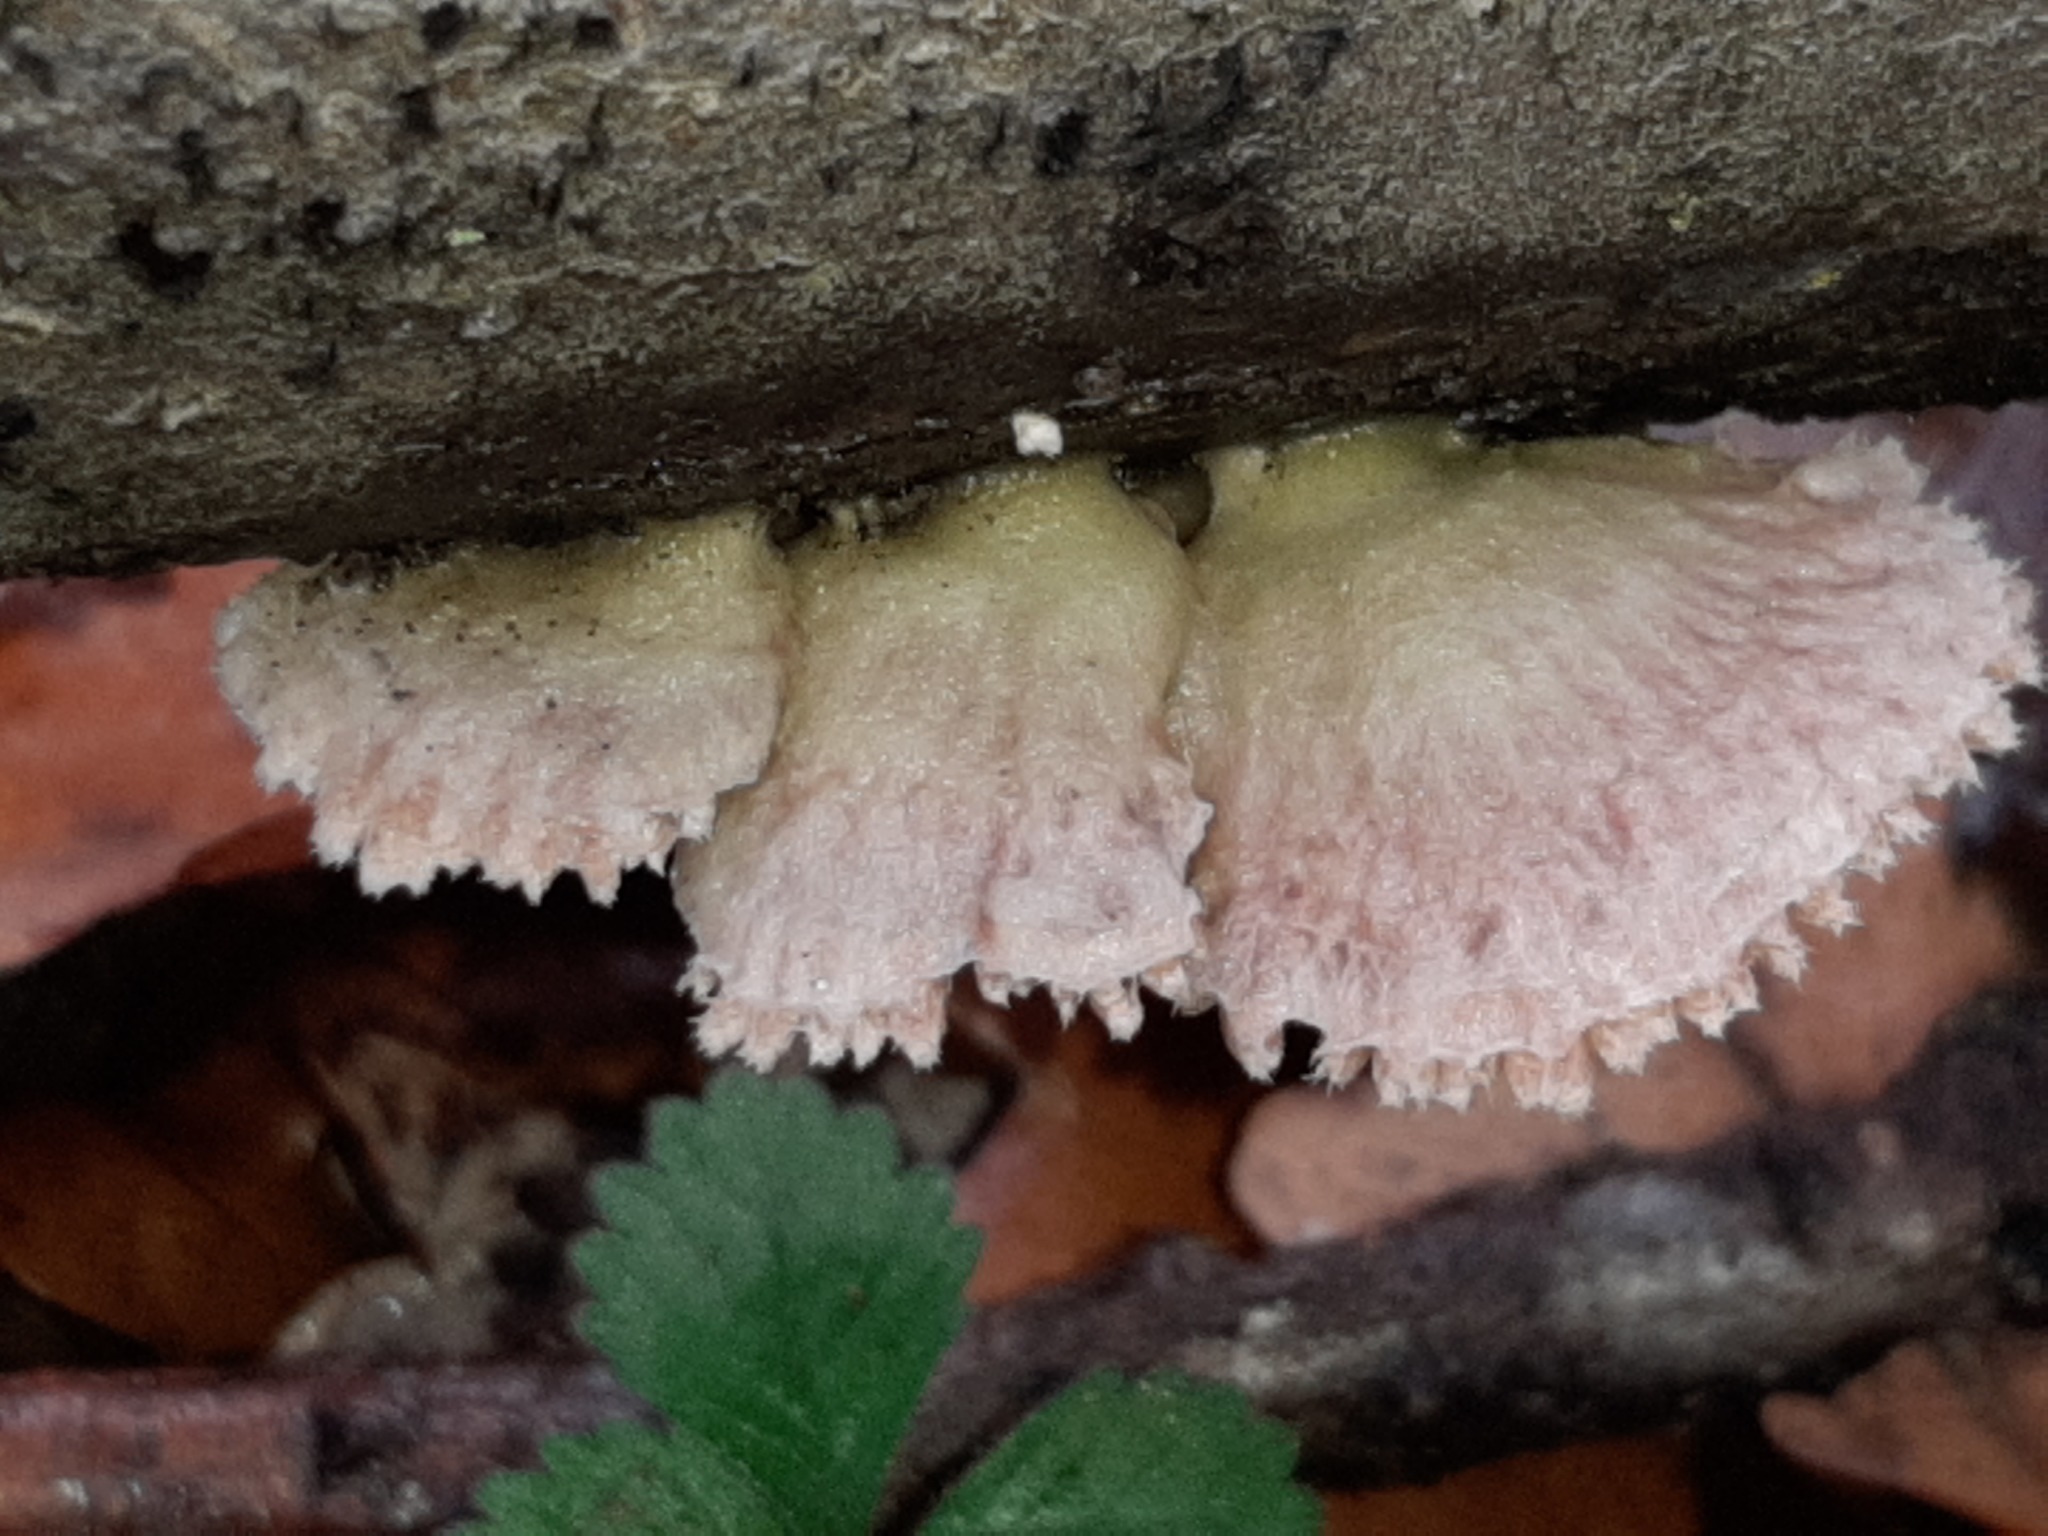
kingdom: Fungi
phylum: Basidiomycota
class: Agaricomycetes
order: Agaricales
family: Schizophyllaceae
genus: Schizophyllum
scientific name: Schizophyllum commune
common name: Common porecrust
